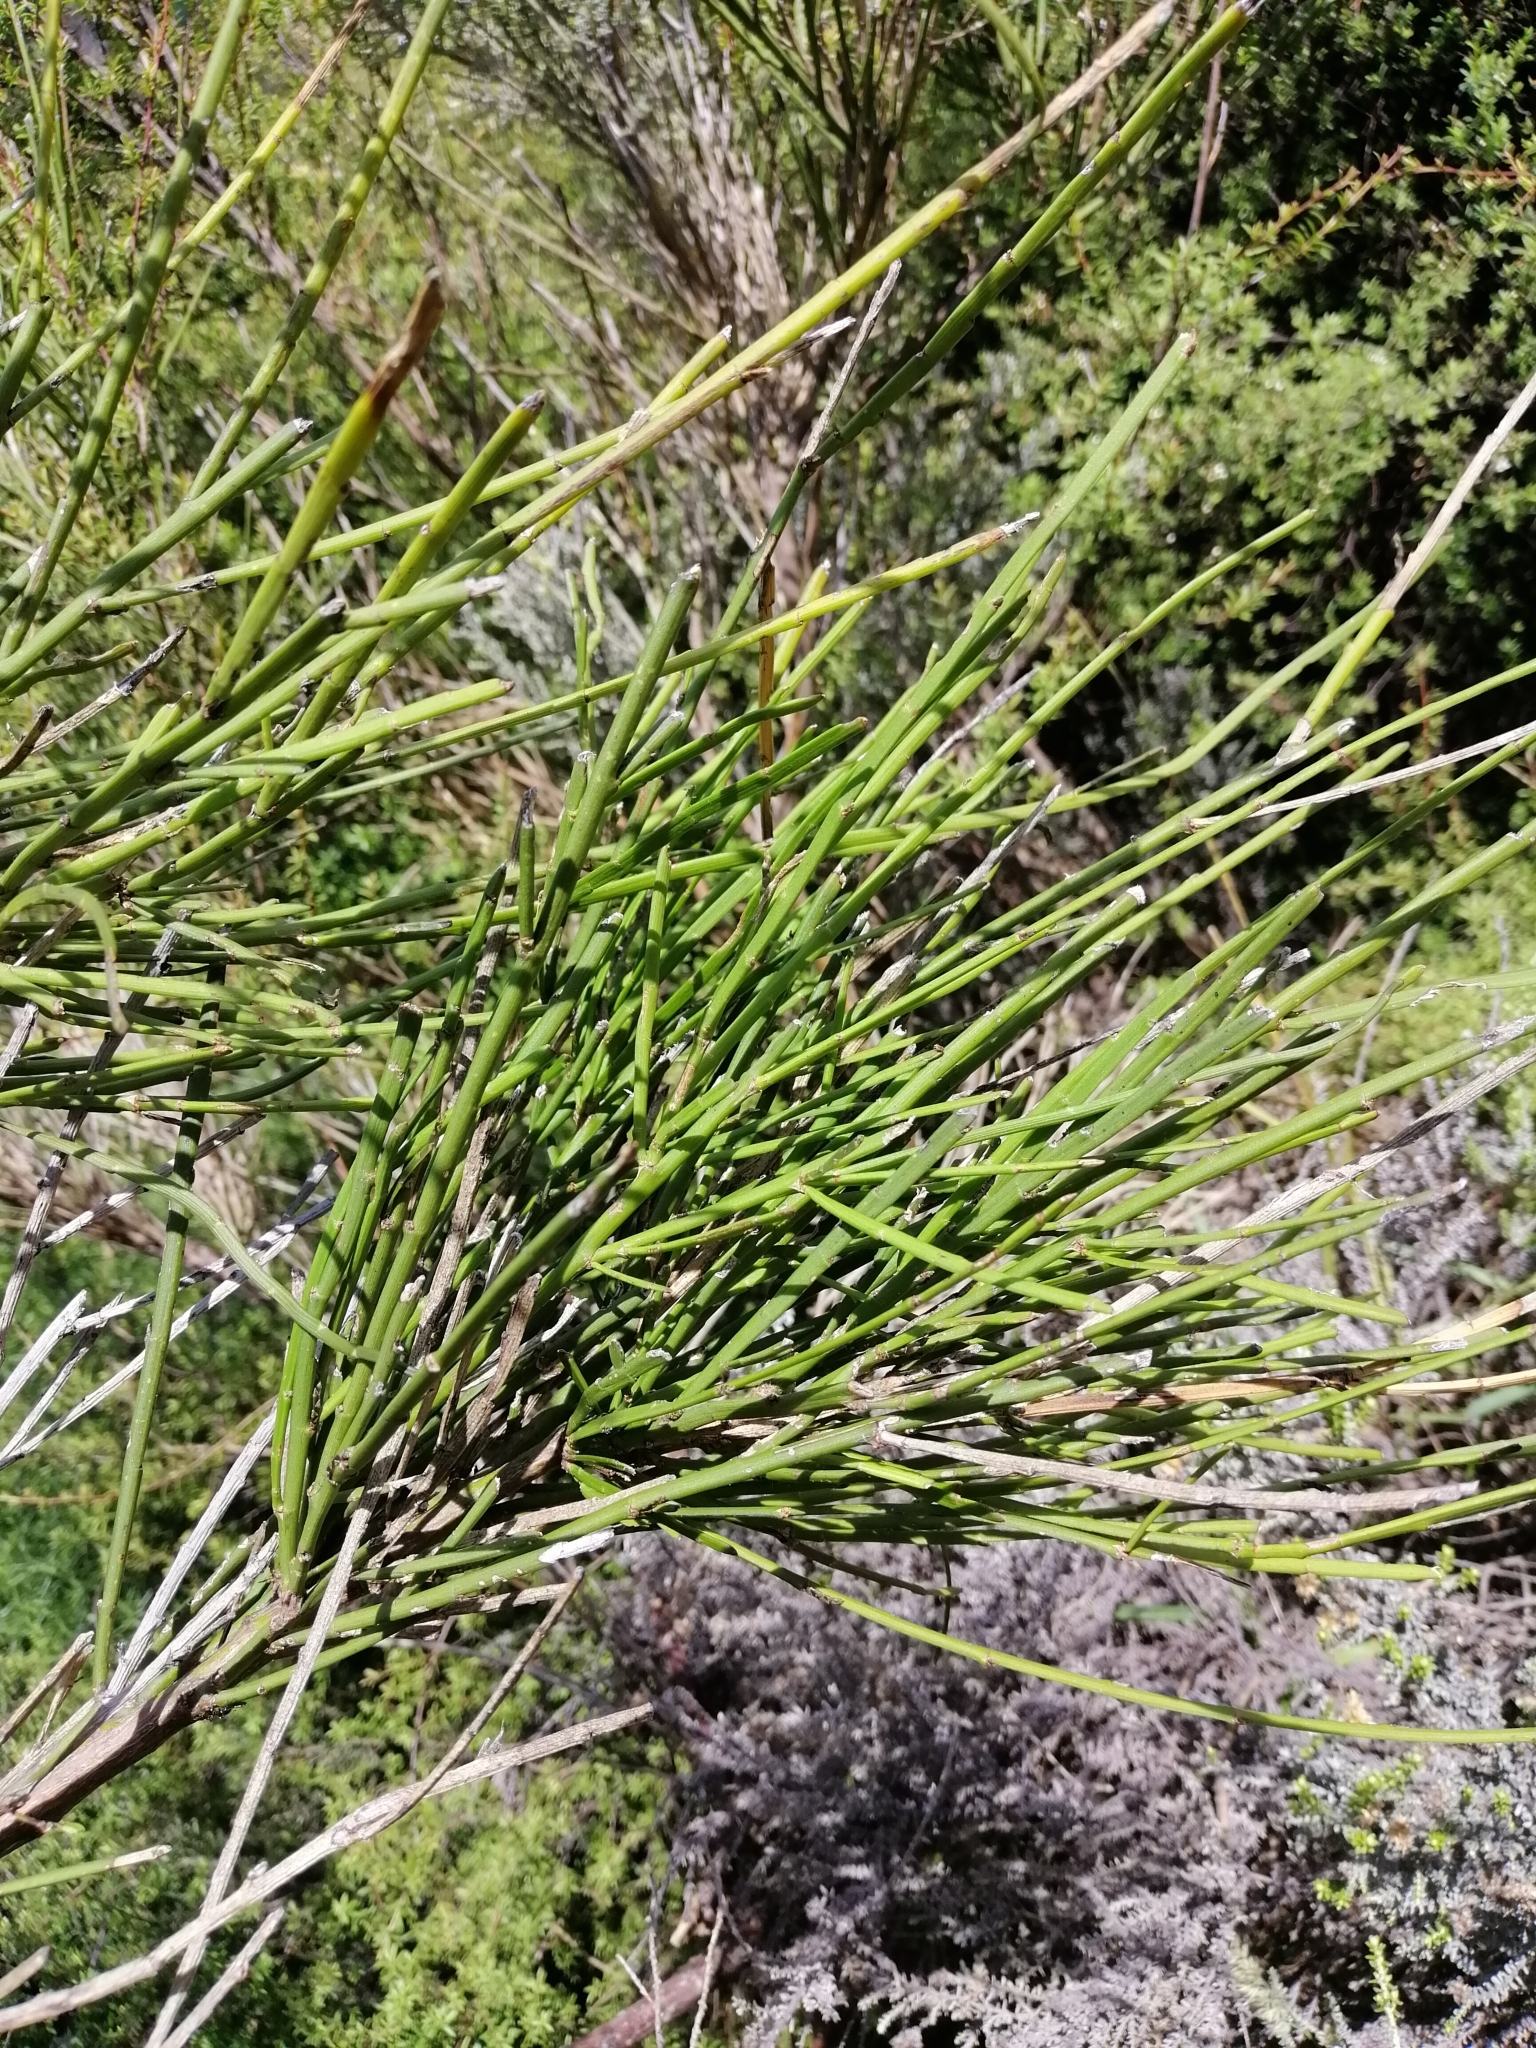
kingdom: Plantae
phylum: Tracheophyta
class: Magnoliopsida
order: Fabales
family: Fabaceae
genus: Carmichaelia
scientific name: Carmichaelia australis
